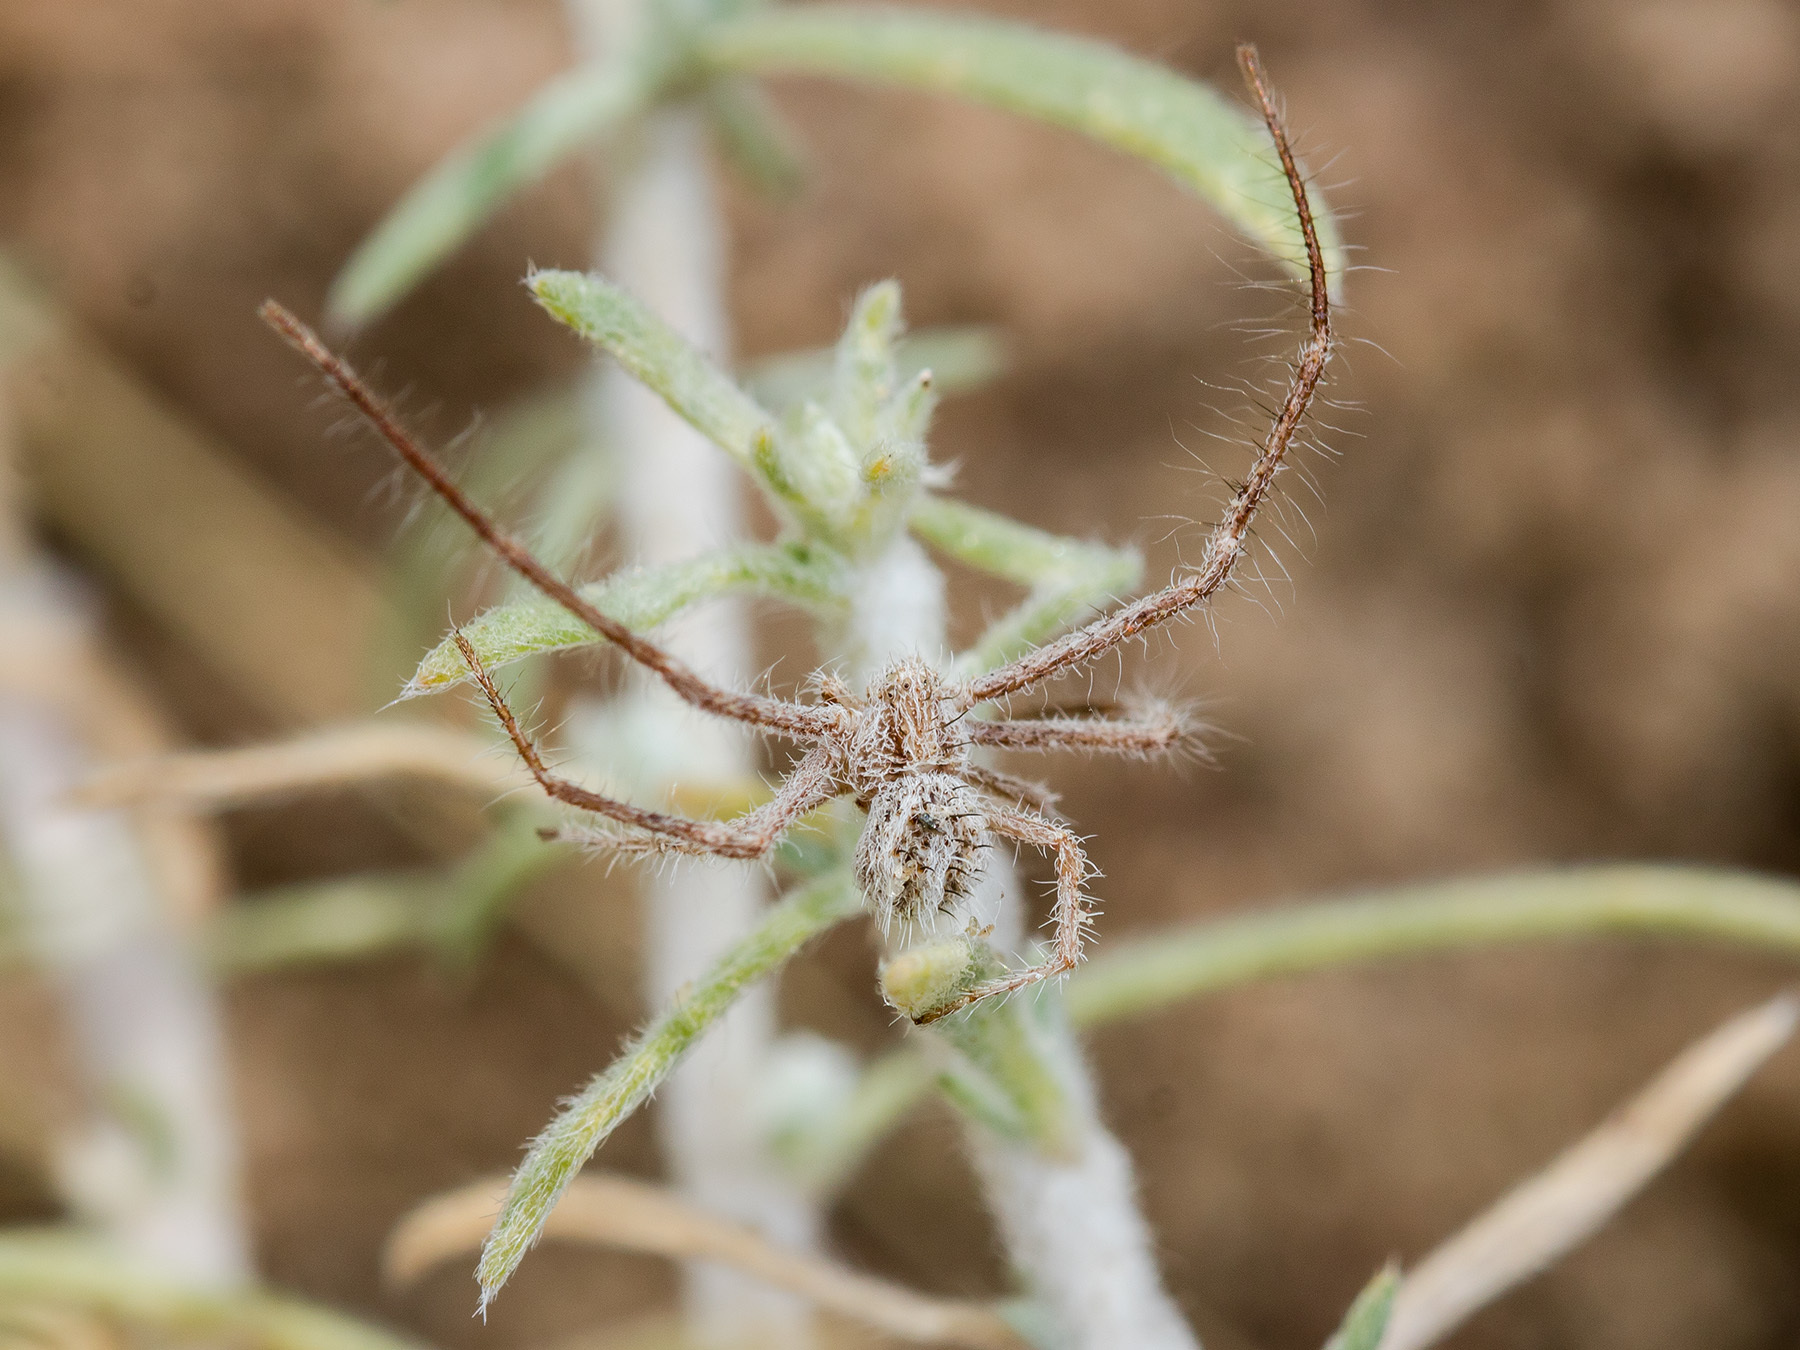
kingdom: Animalia
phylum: Arthropoda
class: Arachnida
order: Araneae
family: Thomisidae
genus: Heriaeus
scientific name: Heriaeus horridus
